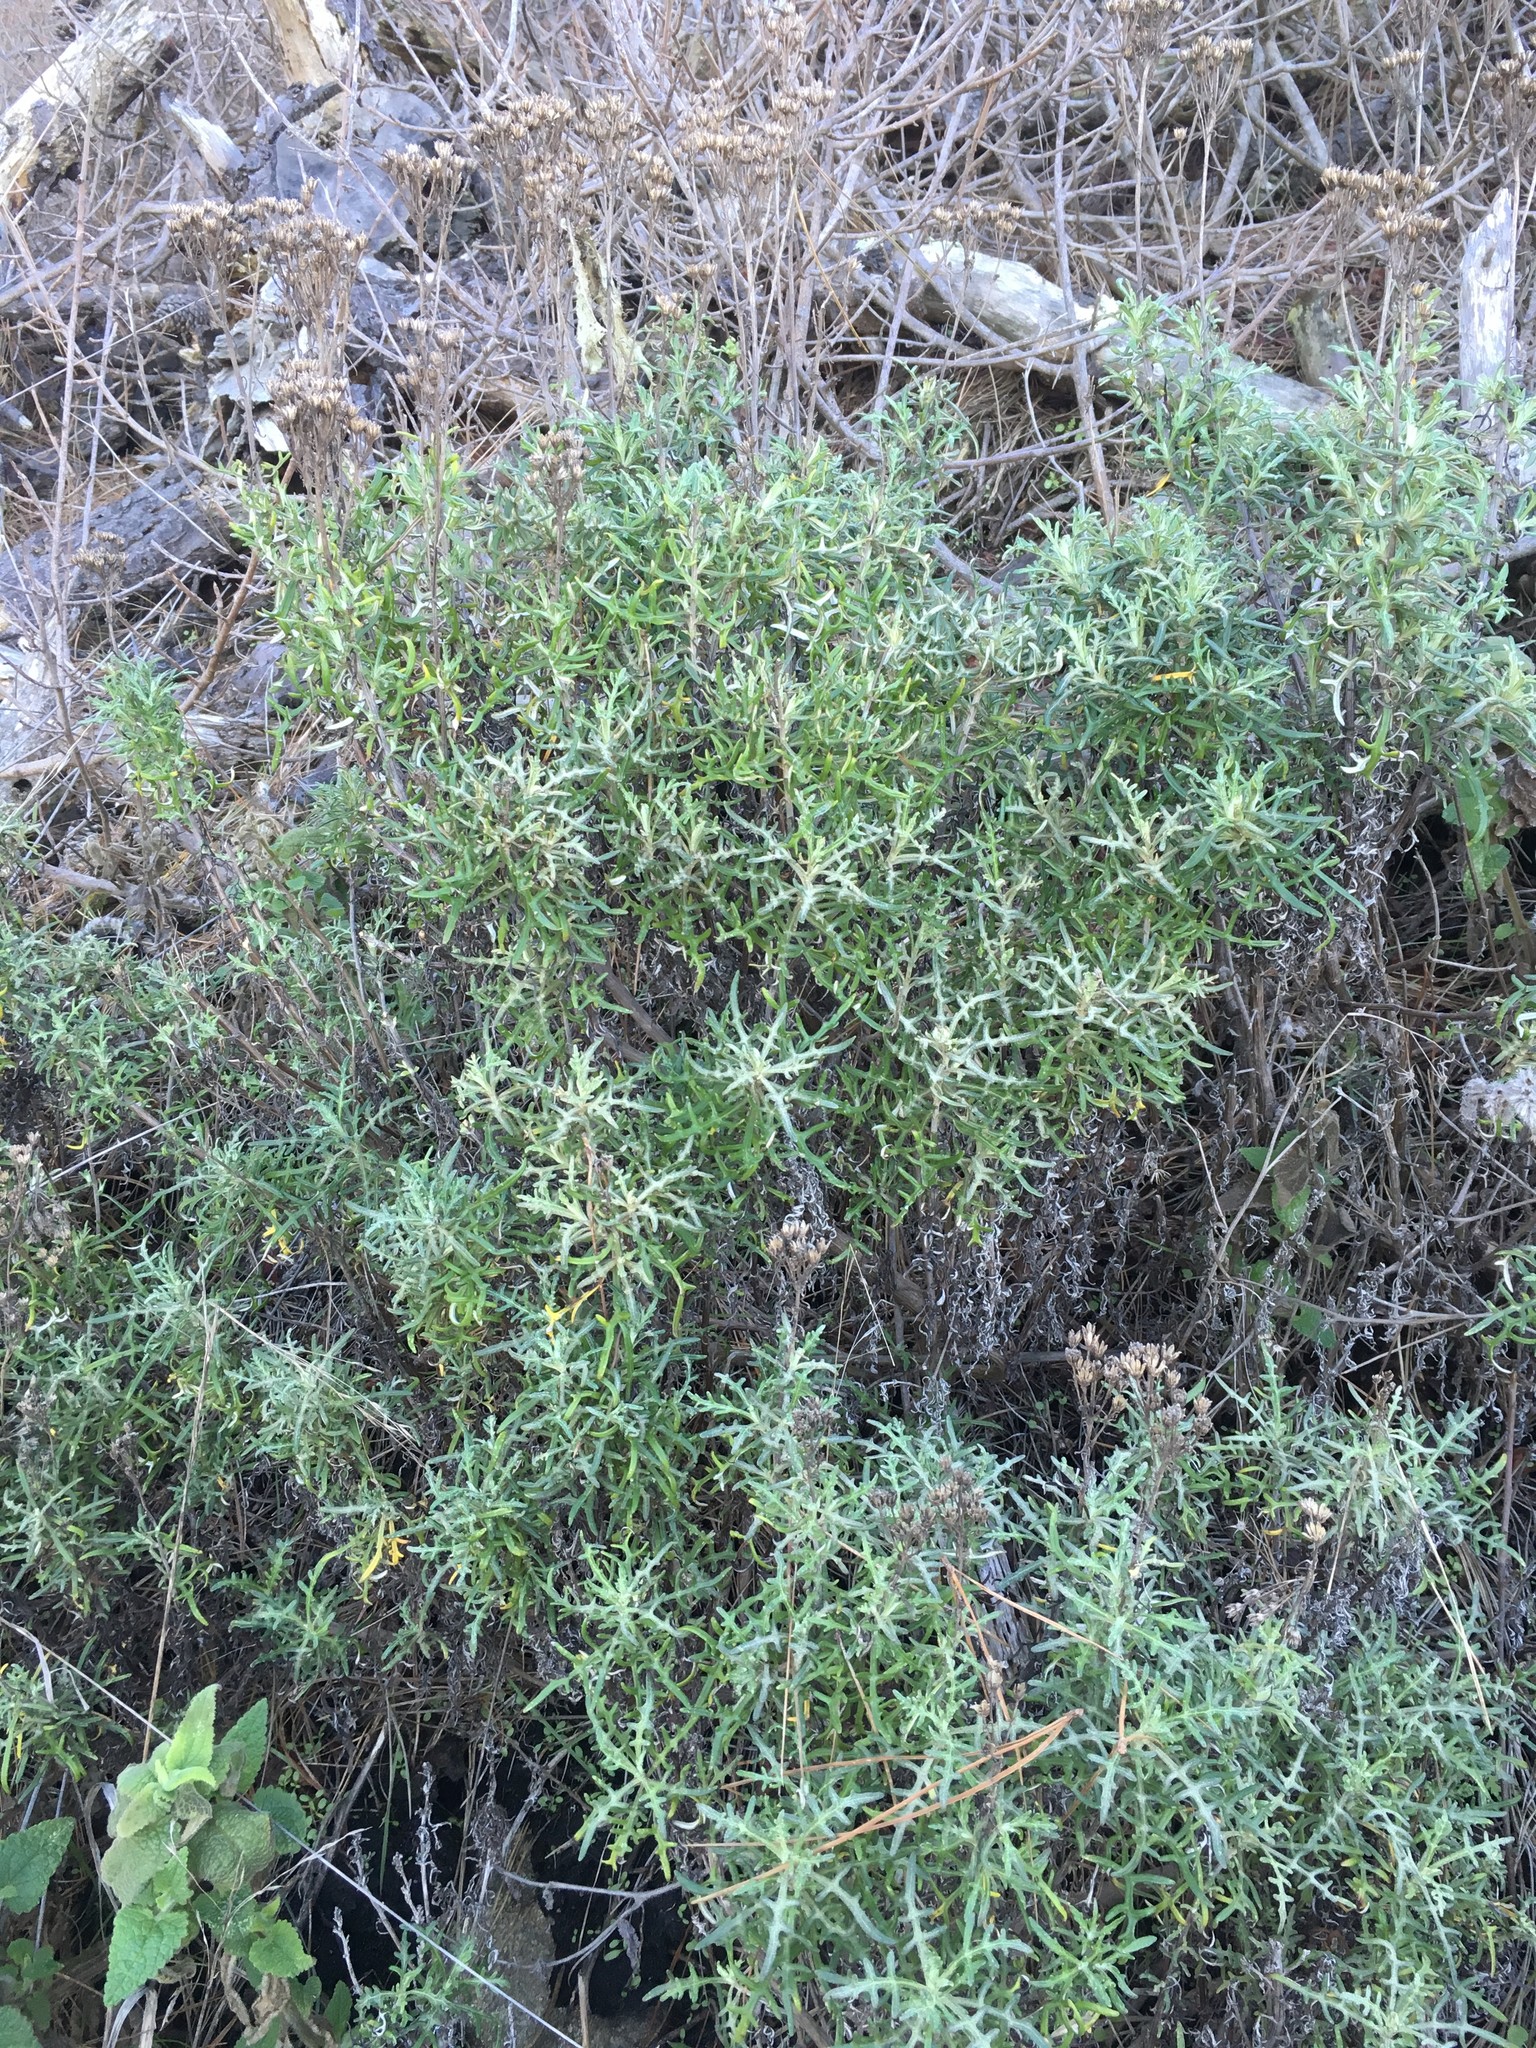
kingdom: Plantae
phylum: Tracheophyta
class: Magnoliopsida
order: Asterales
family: Asteraceae
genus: Eriophyllum
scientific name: Eriophyllum staechadifolium
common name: Lizardtail
